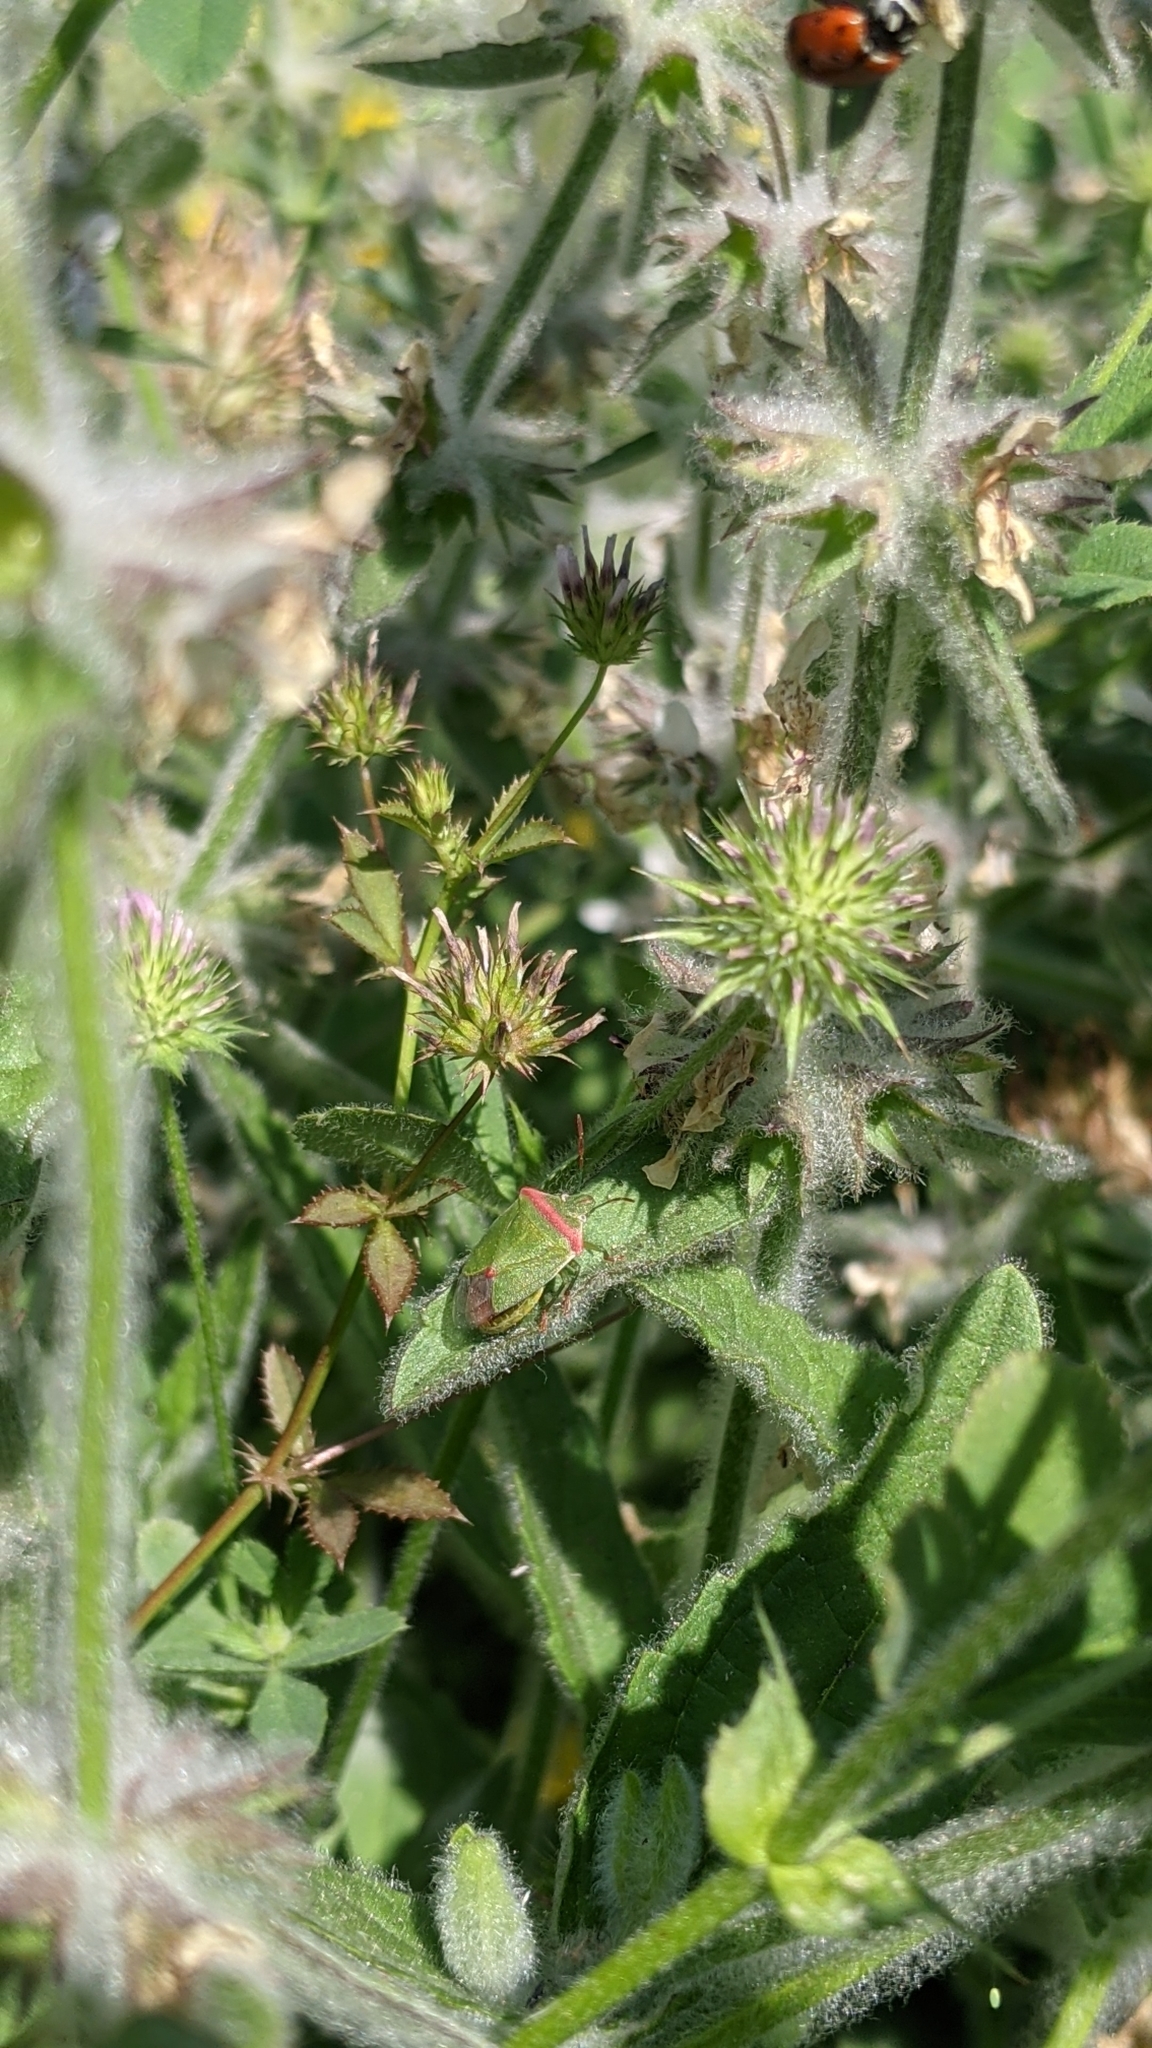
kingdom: Animalia
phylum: Arthropoda
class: Insecta
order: Hemiptera
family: Pentatomidae
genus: Thyanta
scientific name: Thyanta custator
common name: Stink bug
